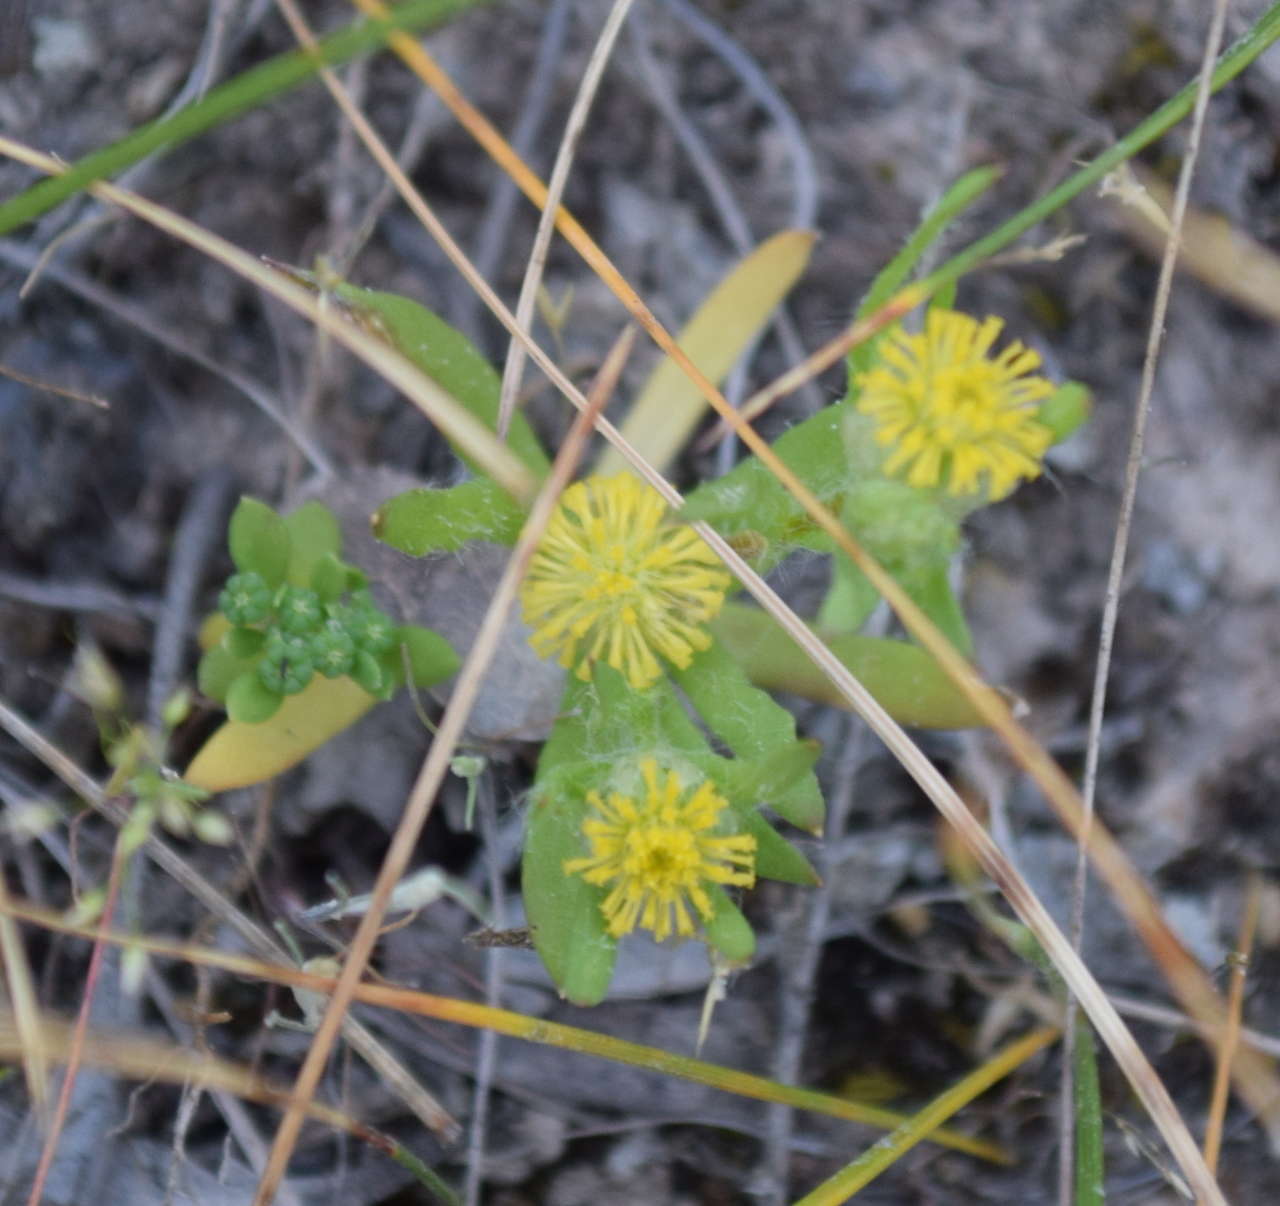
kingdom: Plantae
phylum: Tracheophyta
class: Magnoliopsida
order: Asterales
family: Asteraceae
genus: Triptilodiscus
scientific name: Triptilodiscus pygmaeus
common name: Common sunray
